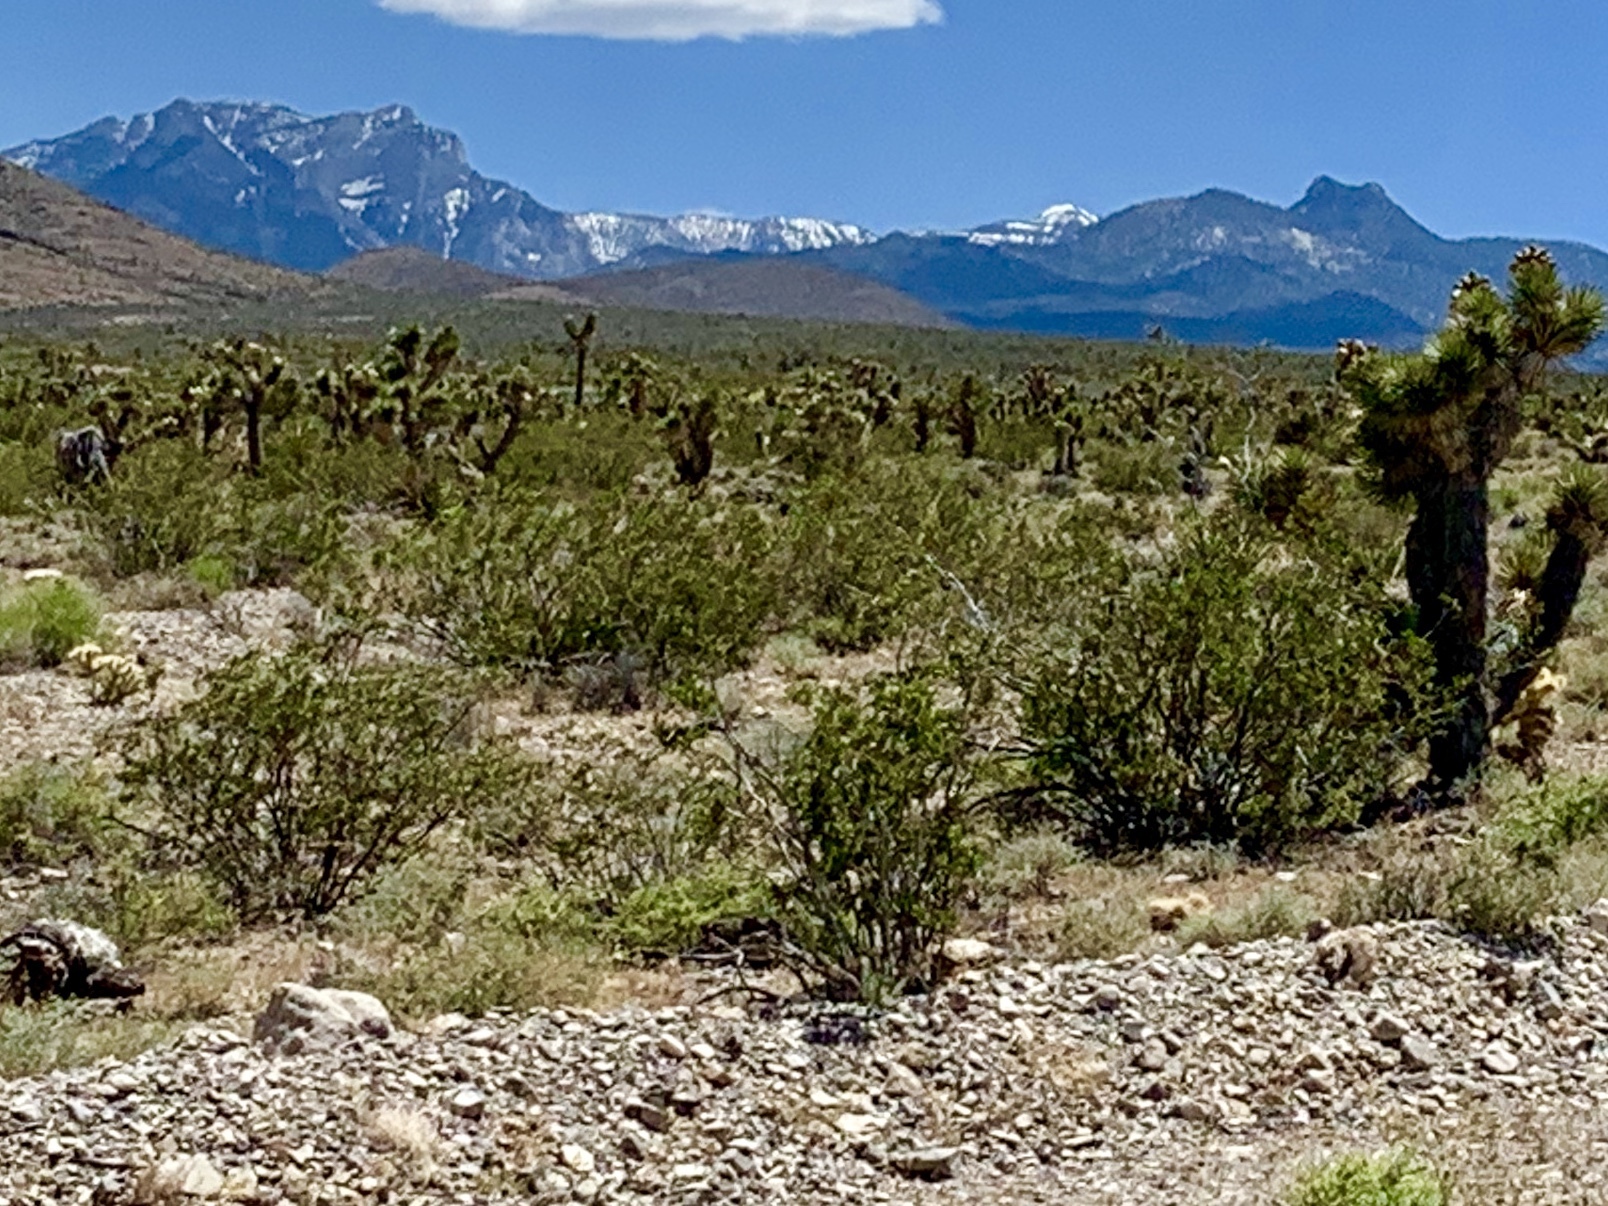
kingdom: Plantae
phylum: Tracheophyta
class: Magnoliopsida
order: Zygophyllales
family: Zygophyllaceae
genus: Larrea
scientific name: Larrea tridentata
